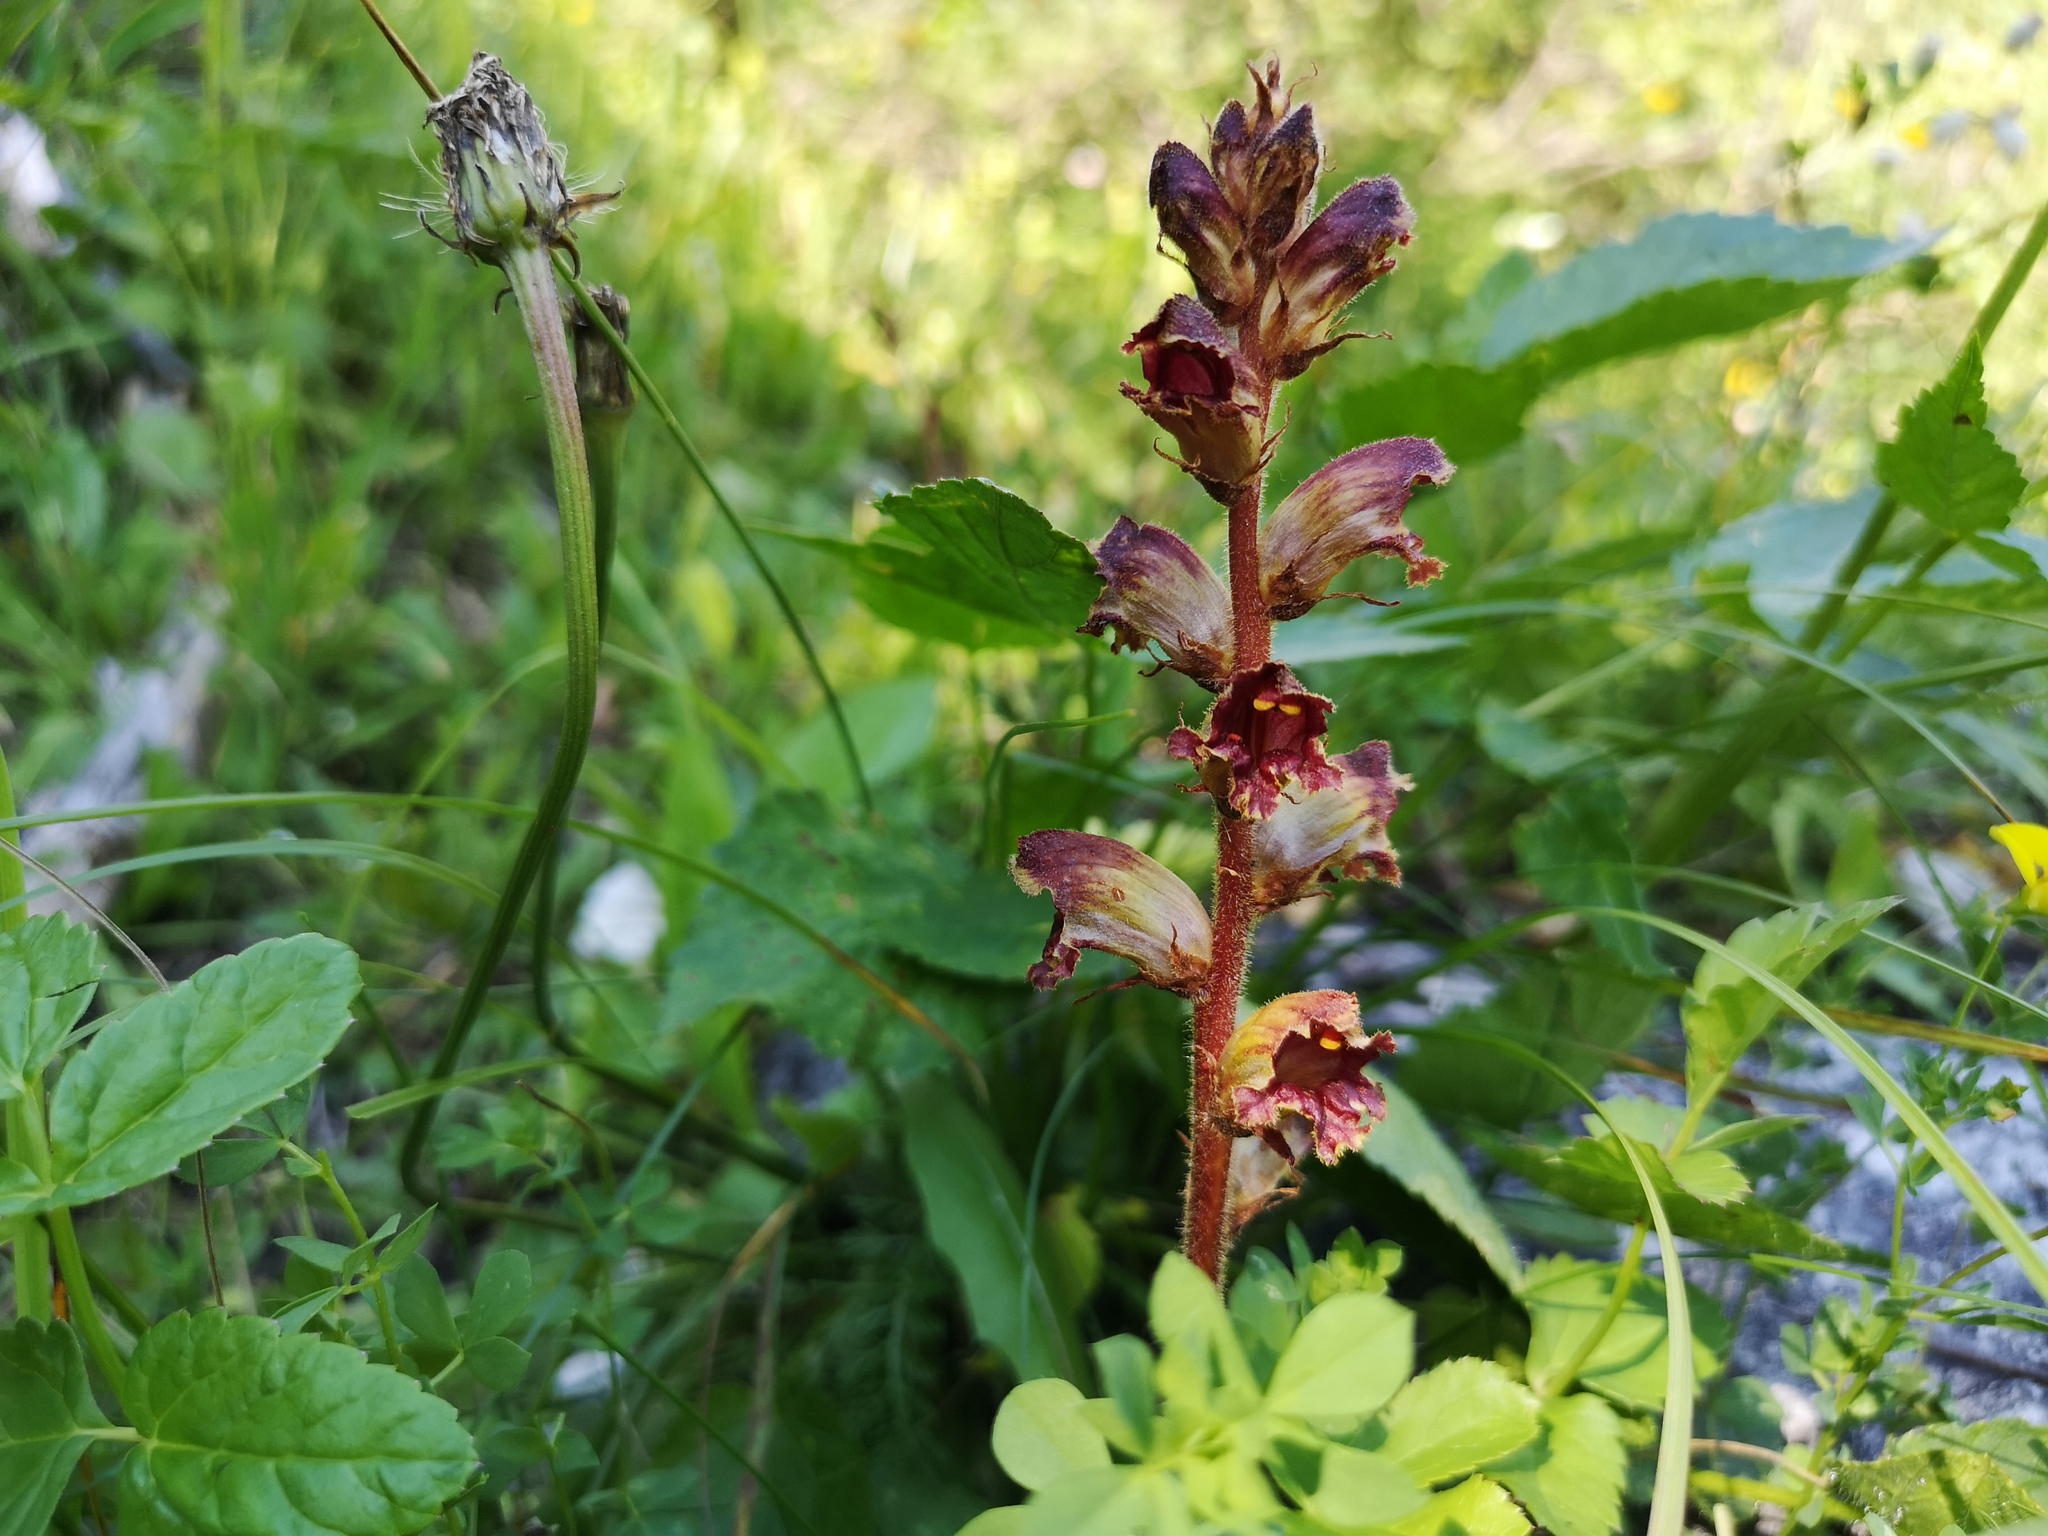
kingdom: Plantae
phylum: Tracheophyta
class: Magnoliopsida
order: Lamiales
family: Orobanchaceae
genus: Orobanche
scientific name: Orobanche gracilis
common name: Slender broomrape
